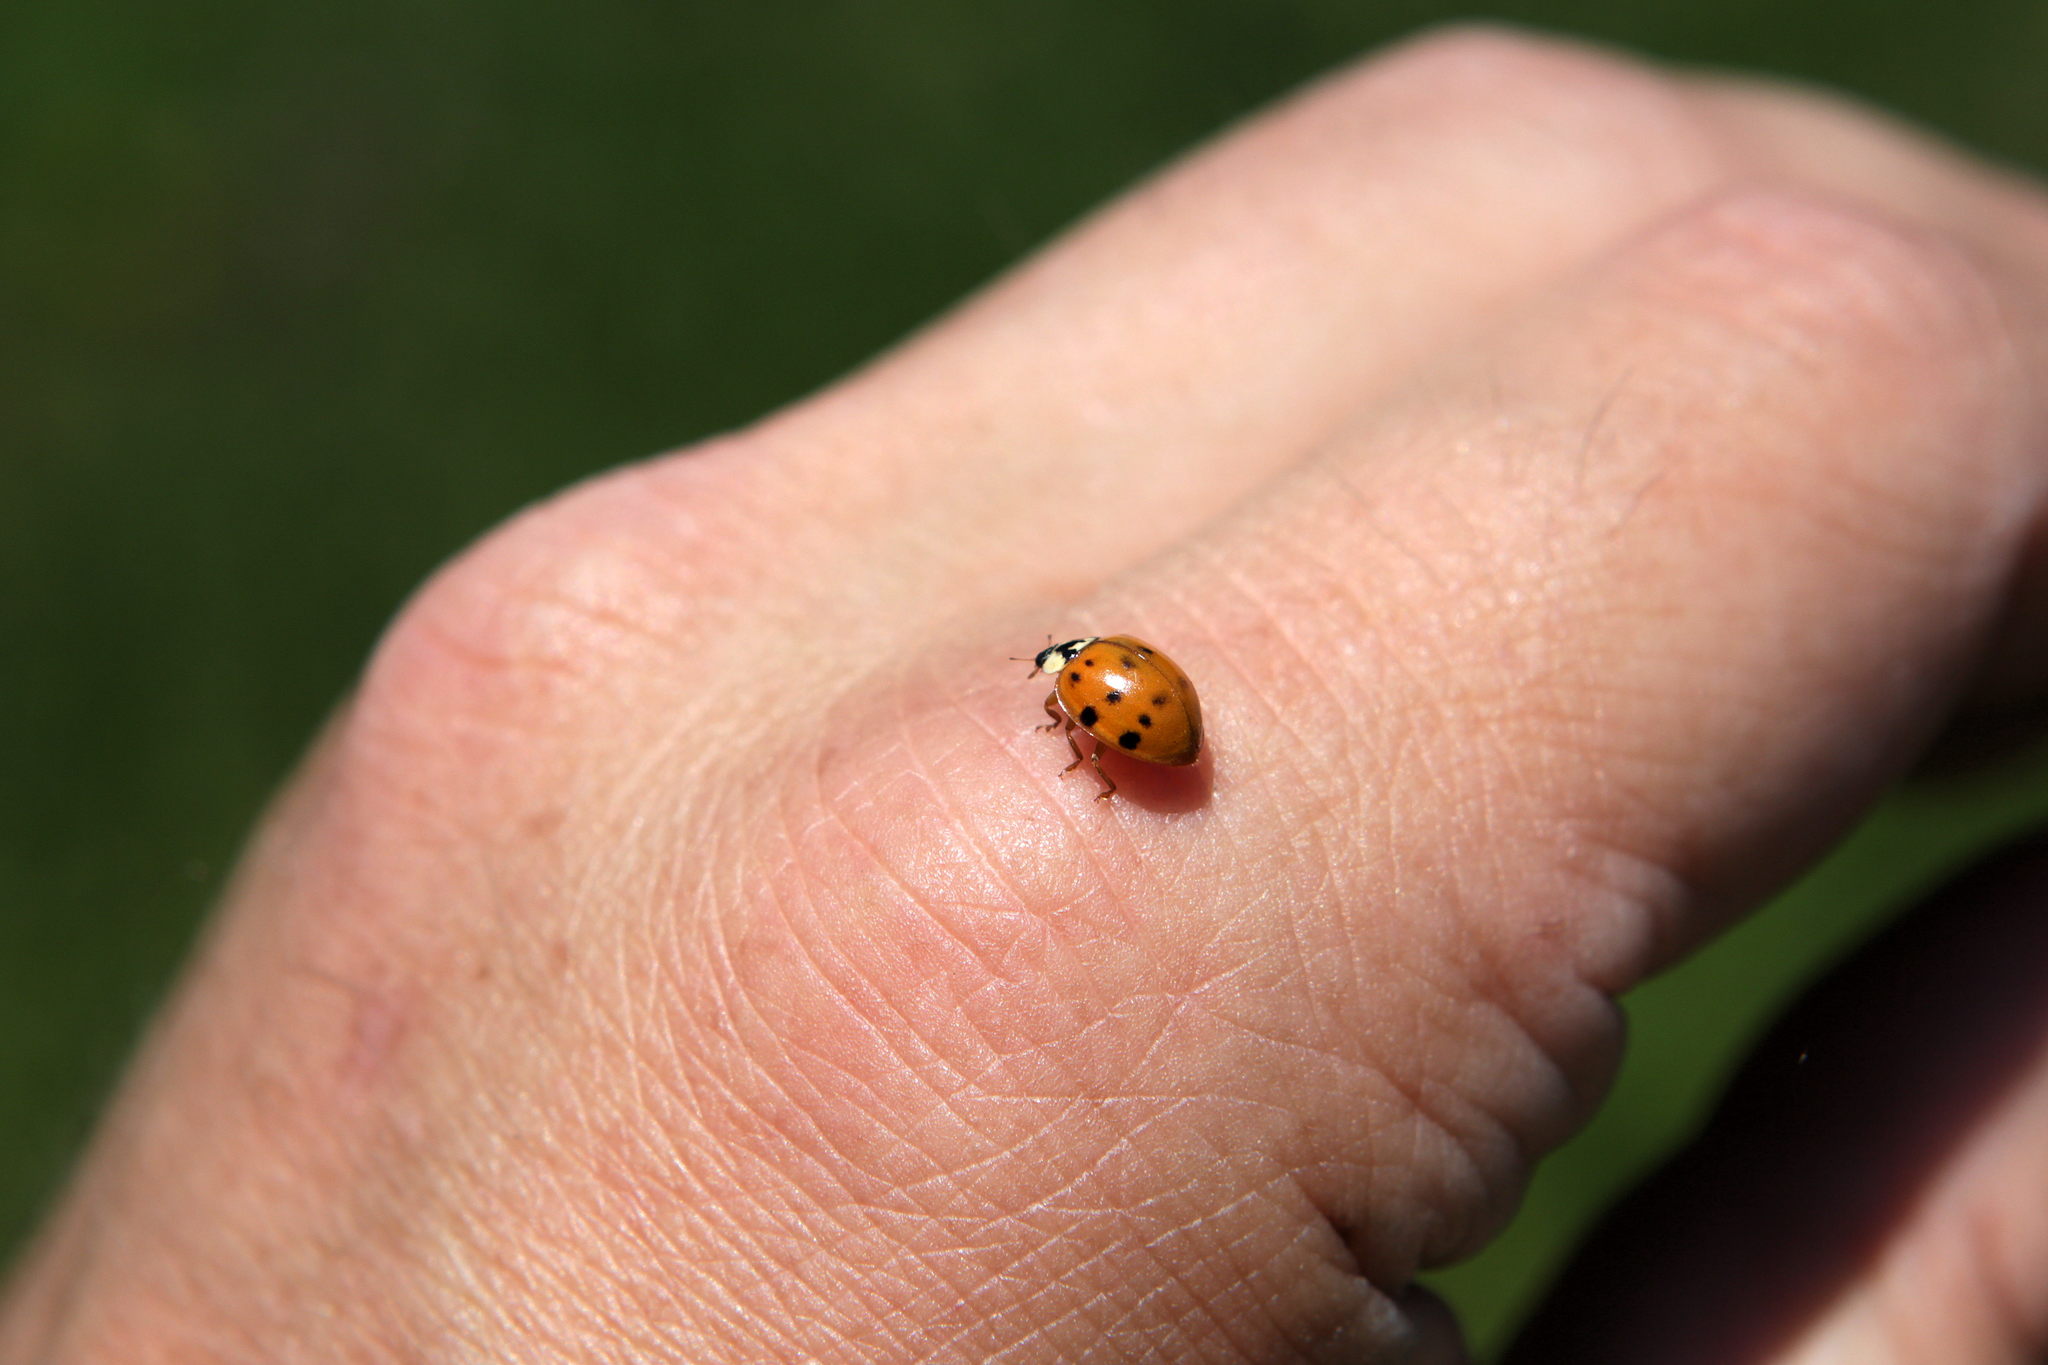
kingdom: Animalia
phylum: Arthropoda
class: Insecta
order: Coleoptera
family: Coccinellidae
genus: Harmonia
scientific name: Harmonia axyridis
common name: Harlequin ladybird
